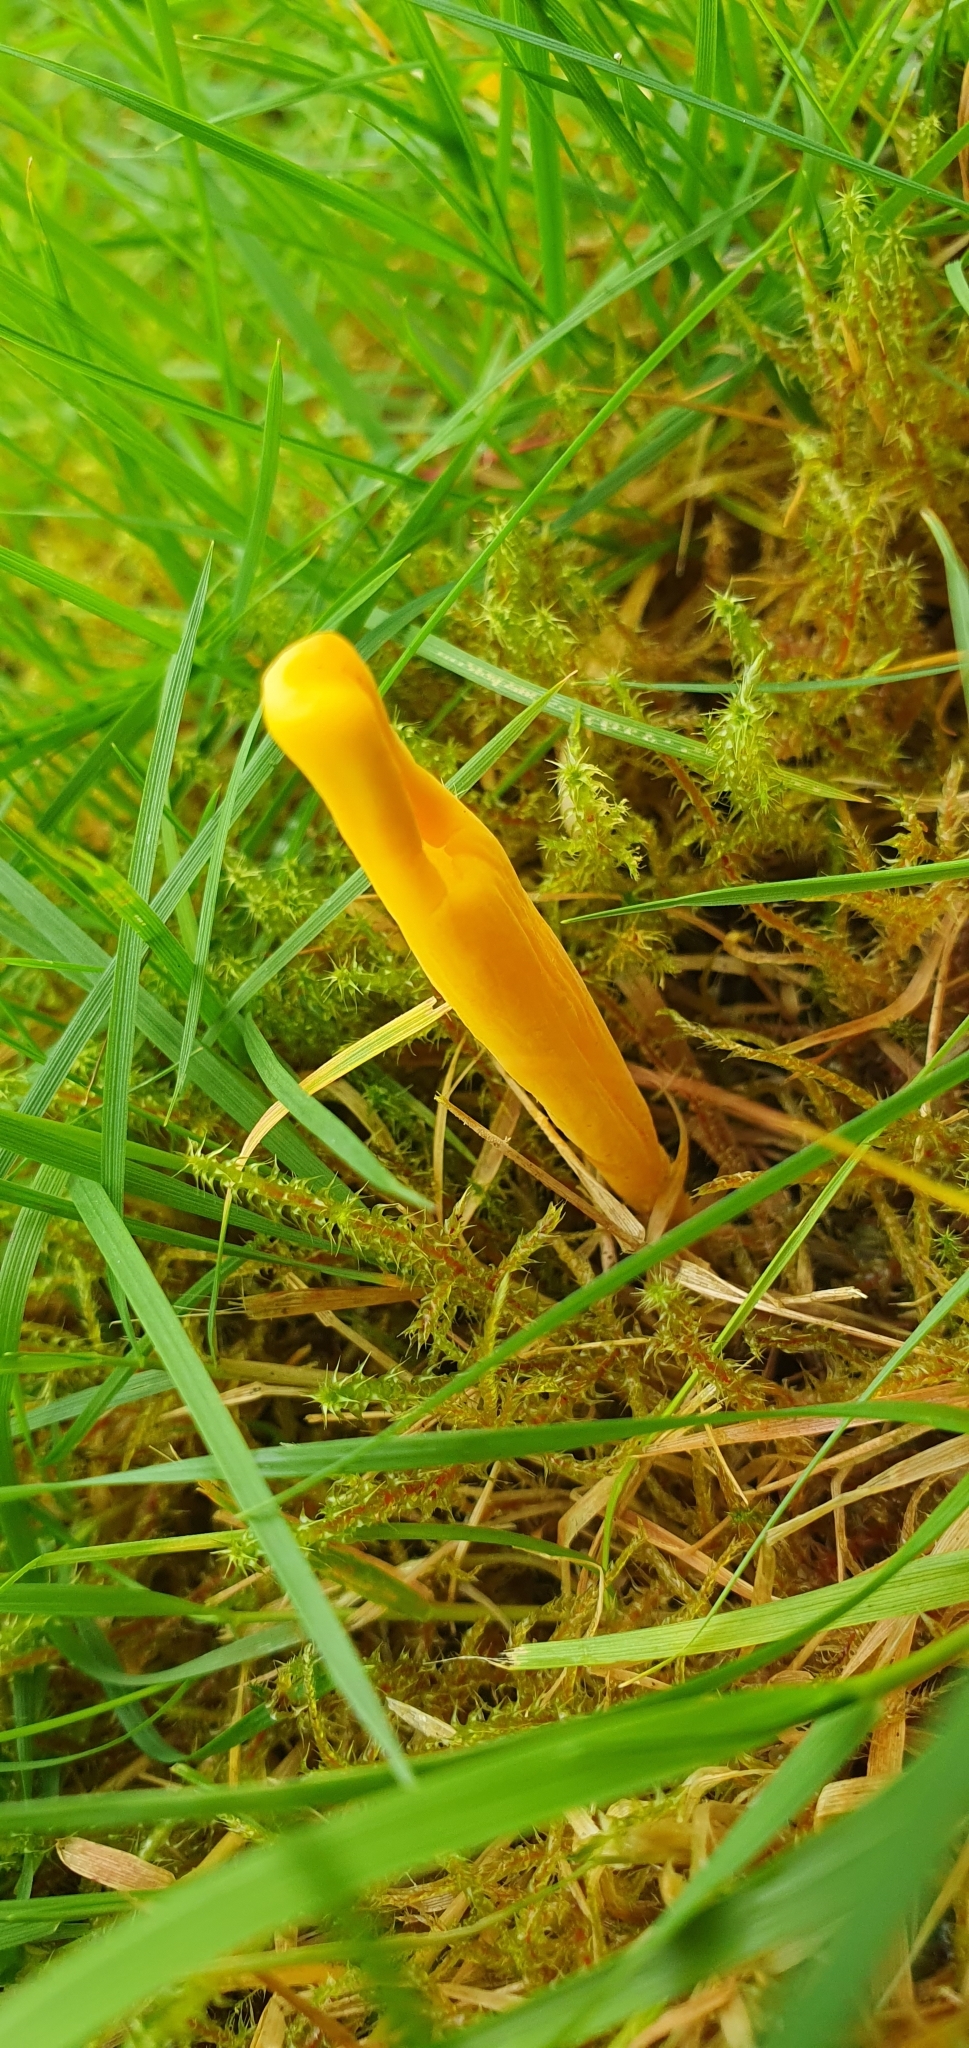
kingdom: Fungi
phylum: Basidiomycota
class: Agaricomycetes
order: Agaricales
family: Clavariaceae
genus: Clavulinopsis
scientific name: Clavulinopsis helvola
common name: Yellow club
